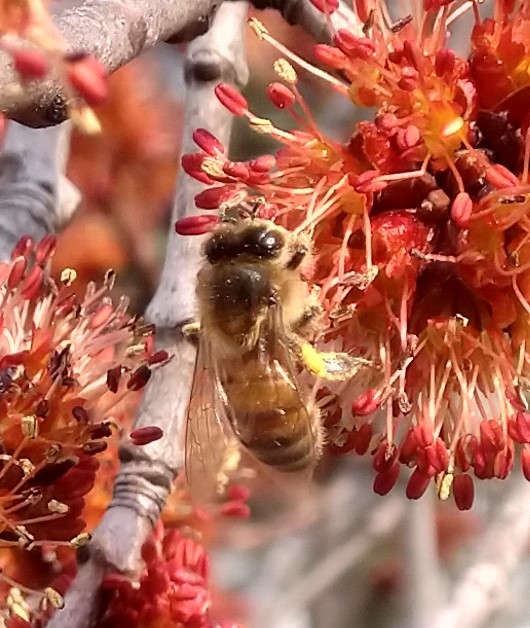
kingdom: Animalia
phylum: Arthropoda
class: Insecta
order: Hymenoptera
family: Apidae
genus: Apis
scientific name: Apis mellifera
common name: Honey bee
